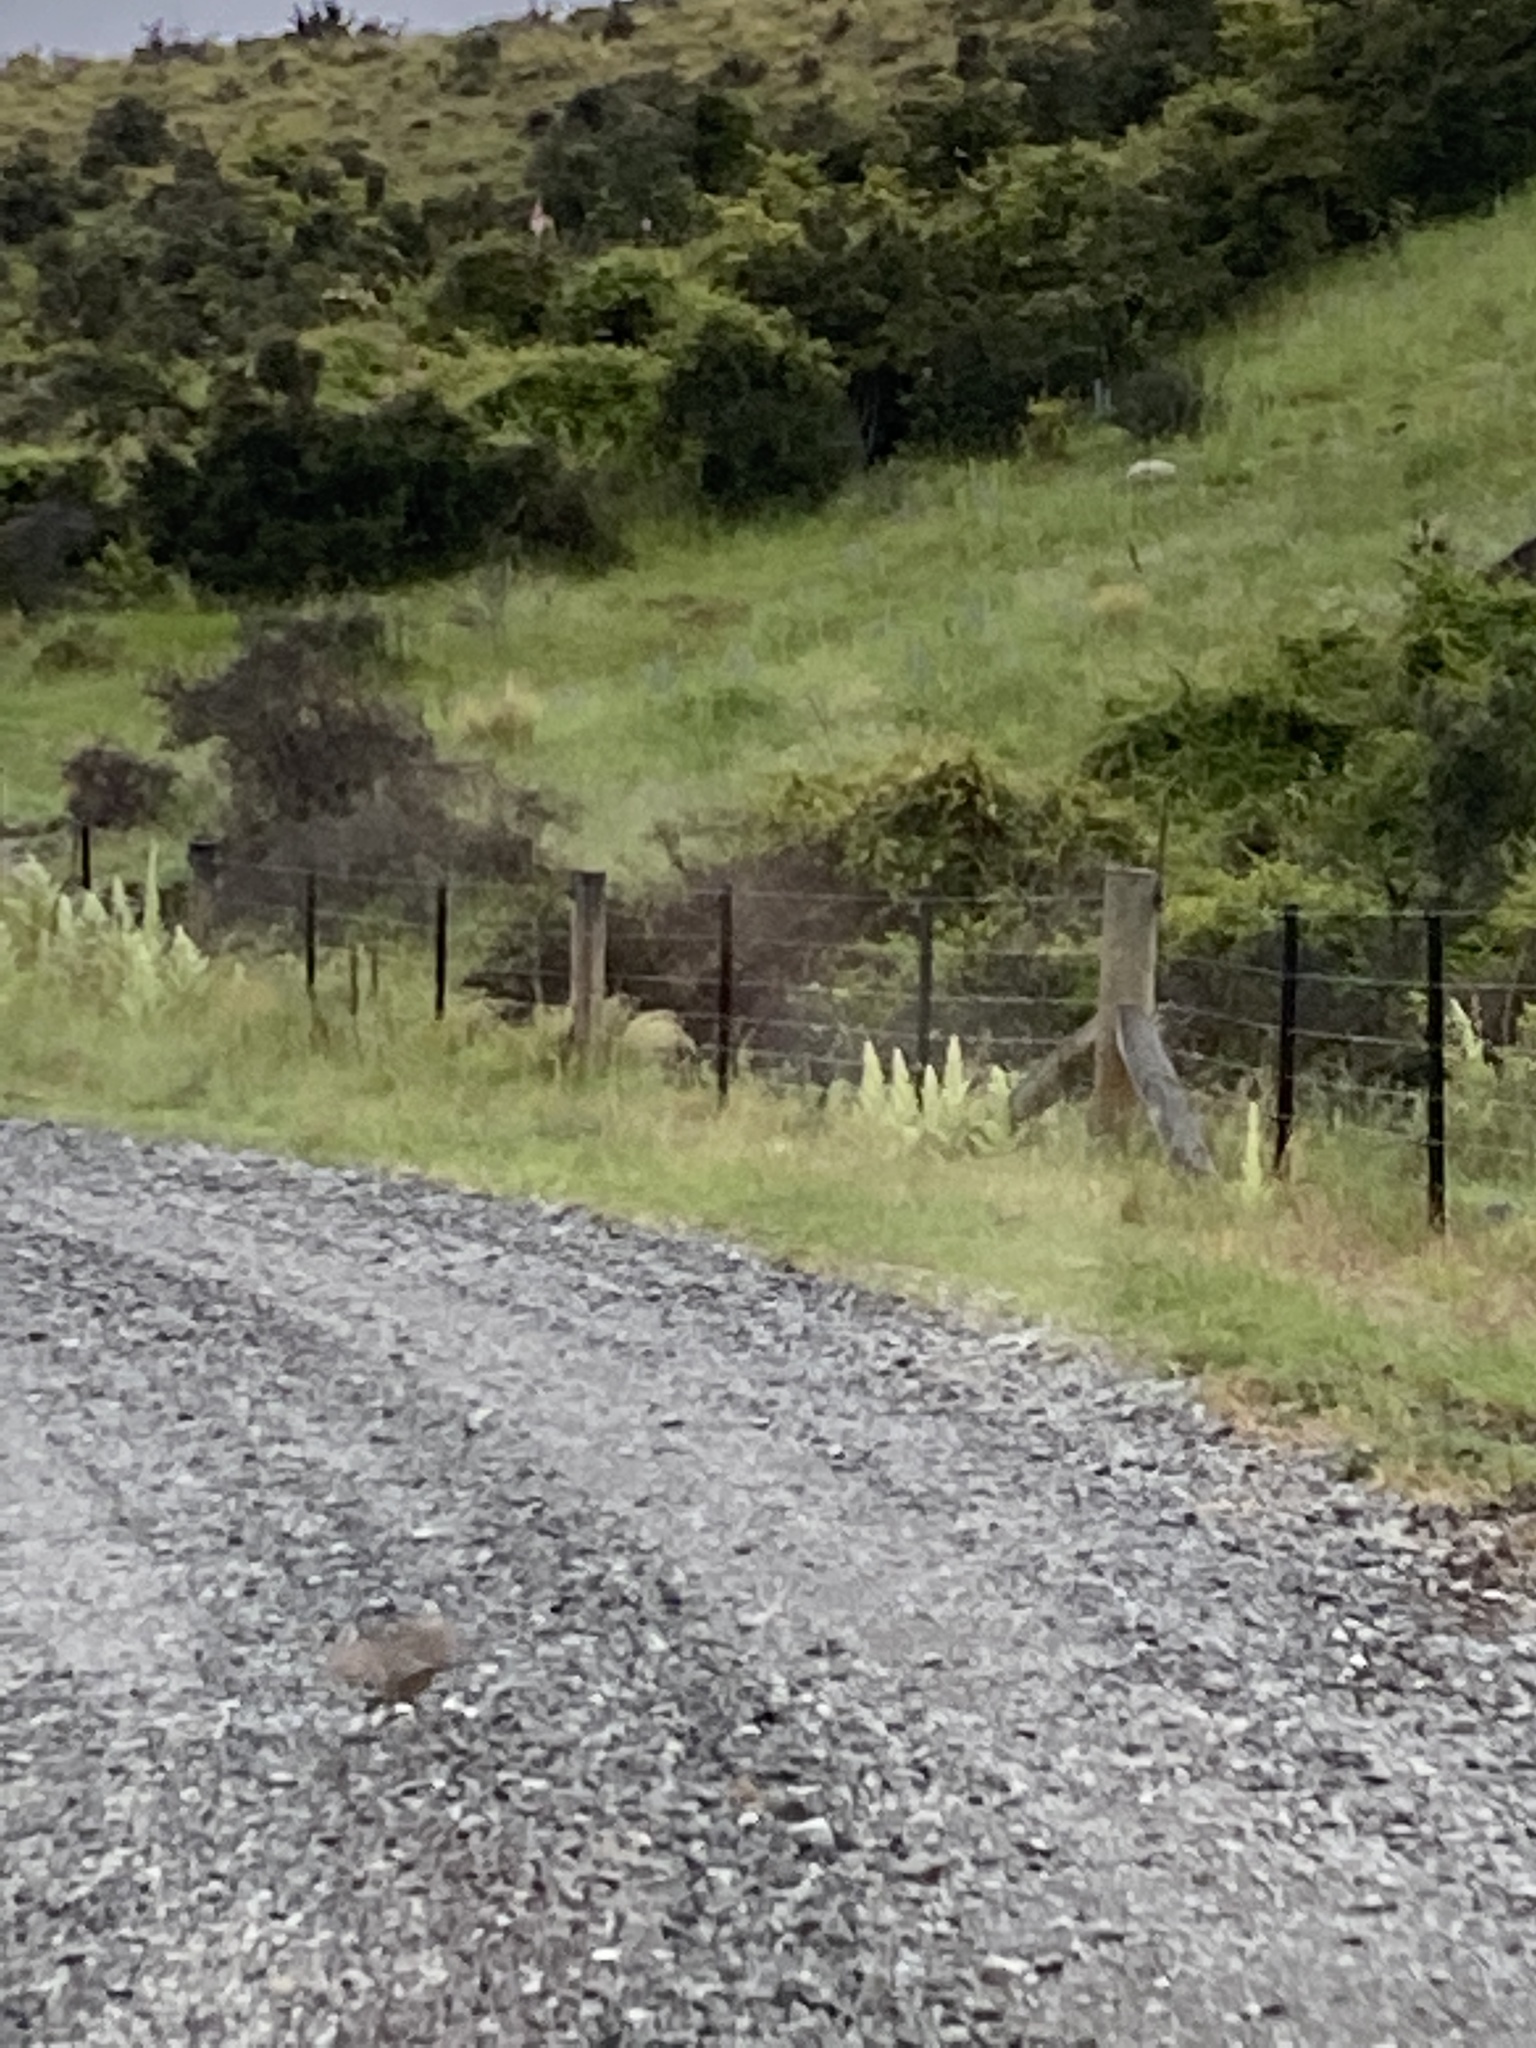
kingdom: Animalia
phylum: Chordata
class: Aves
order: Galliformes
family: Odontophoridae
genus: Callipepla
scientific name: Callipepla californica
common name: California quail
